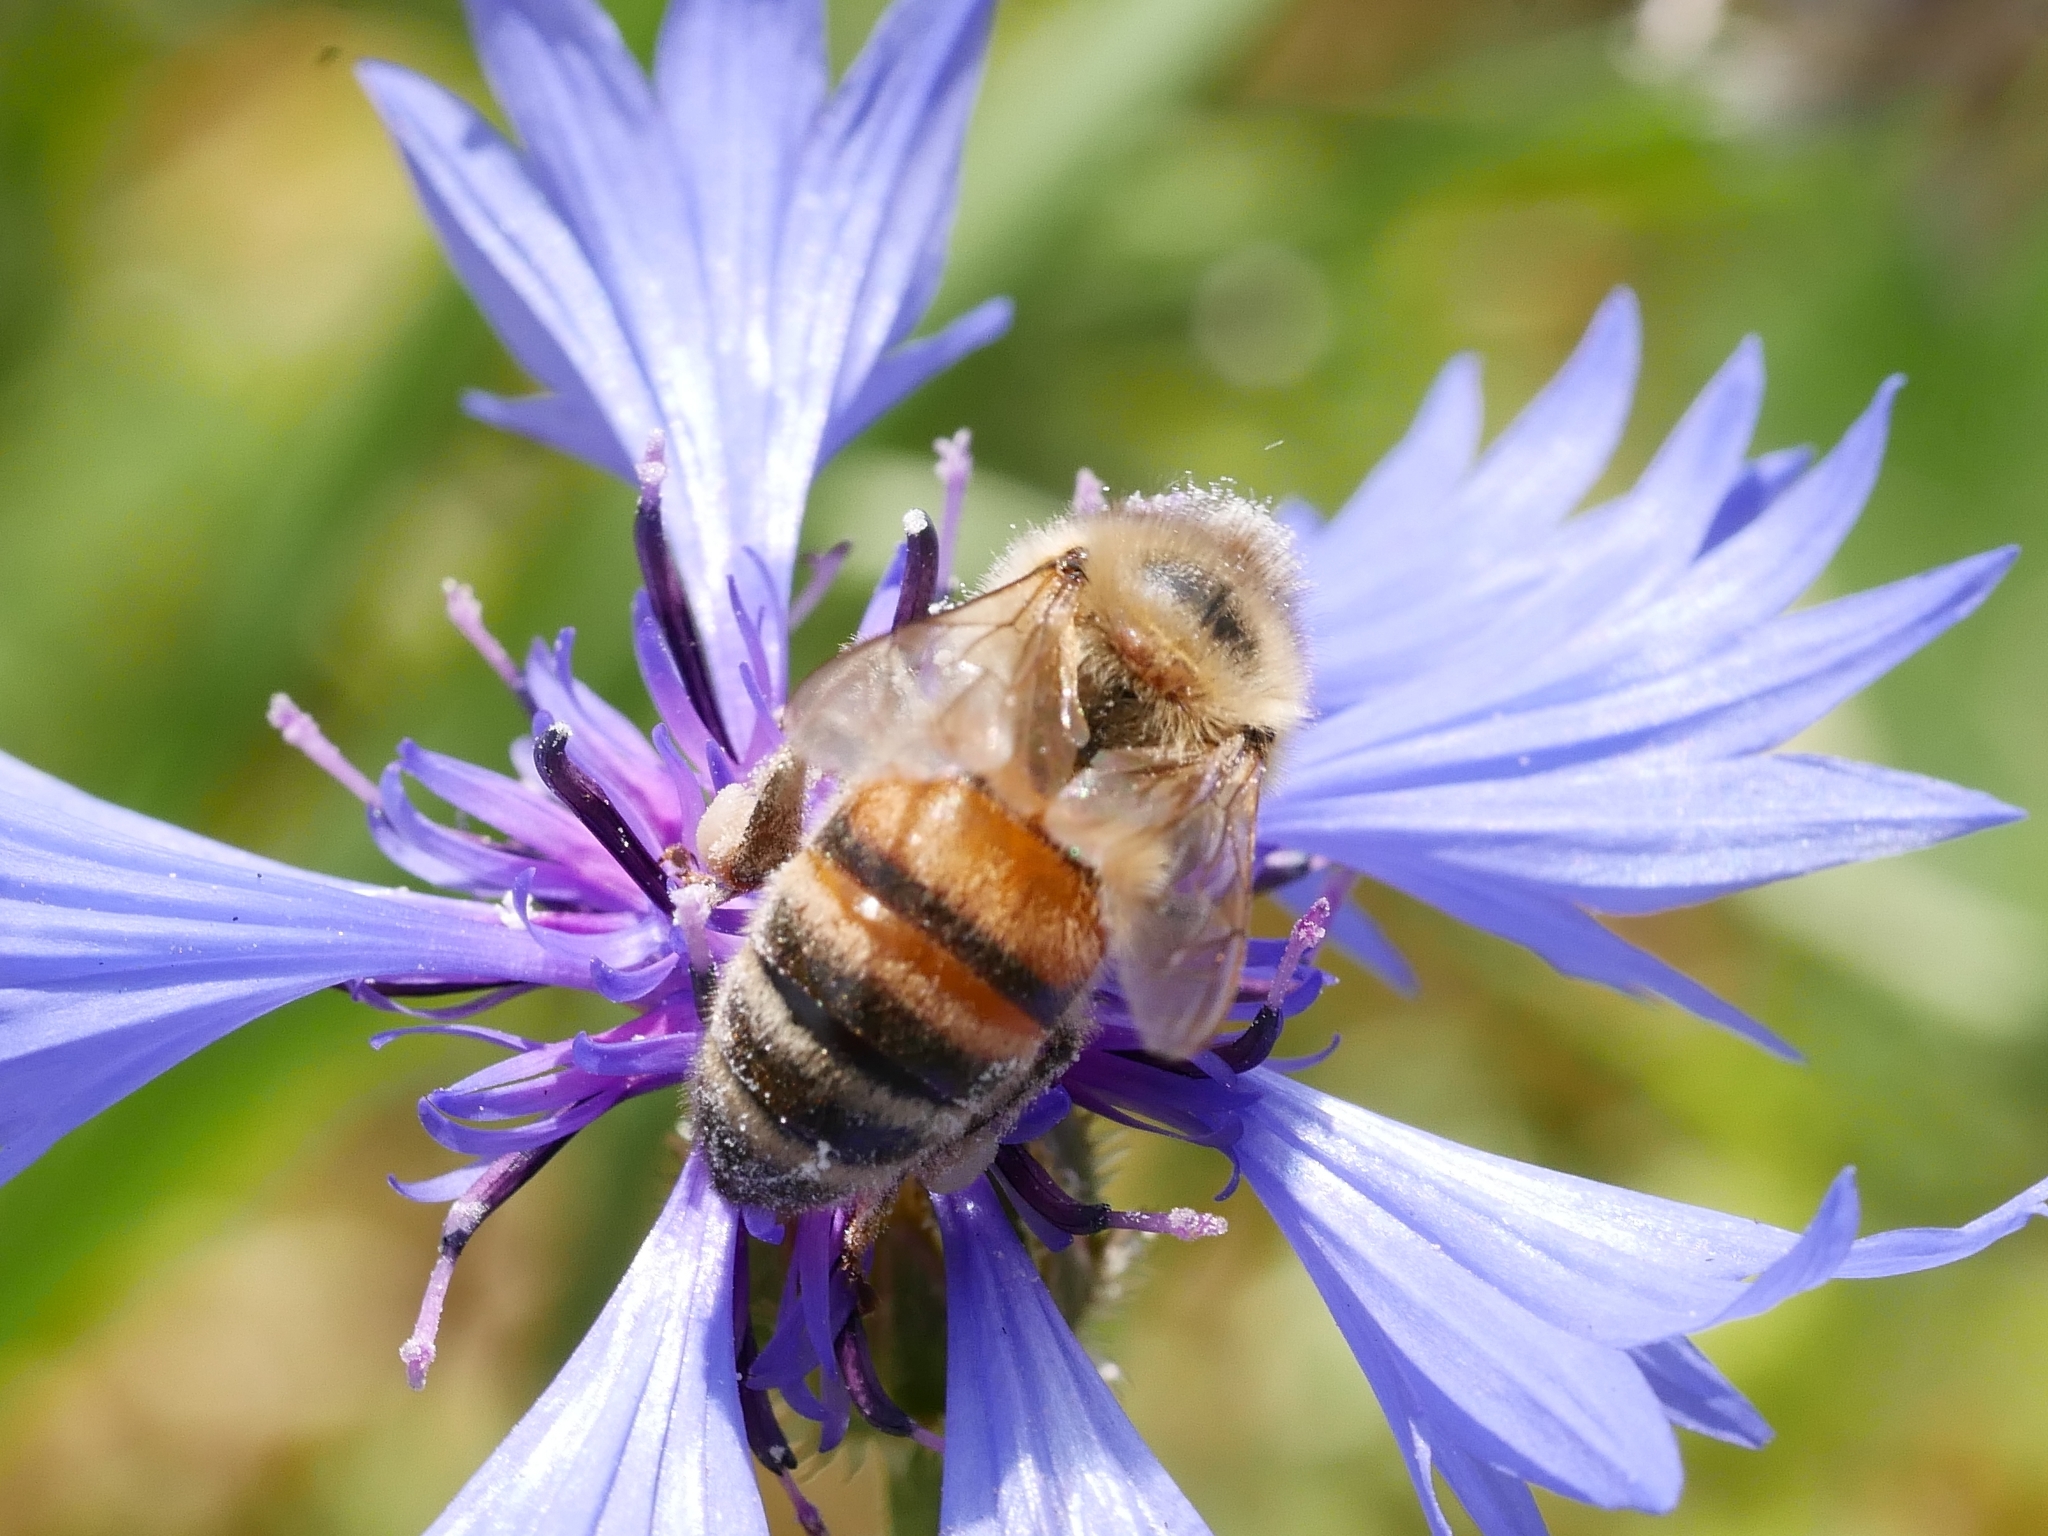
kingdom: Animalia
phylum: Arthropoda
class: Insecta
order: Hymenoptera
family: Apidae
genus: Apis
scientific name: Apis mellifera
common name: Honey bee
